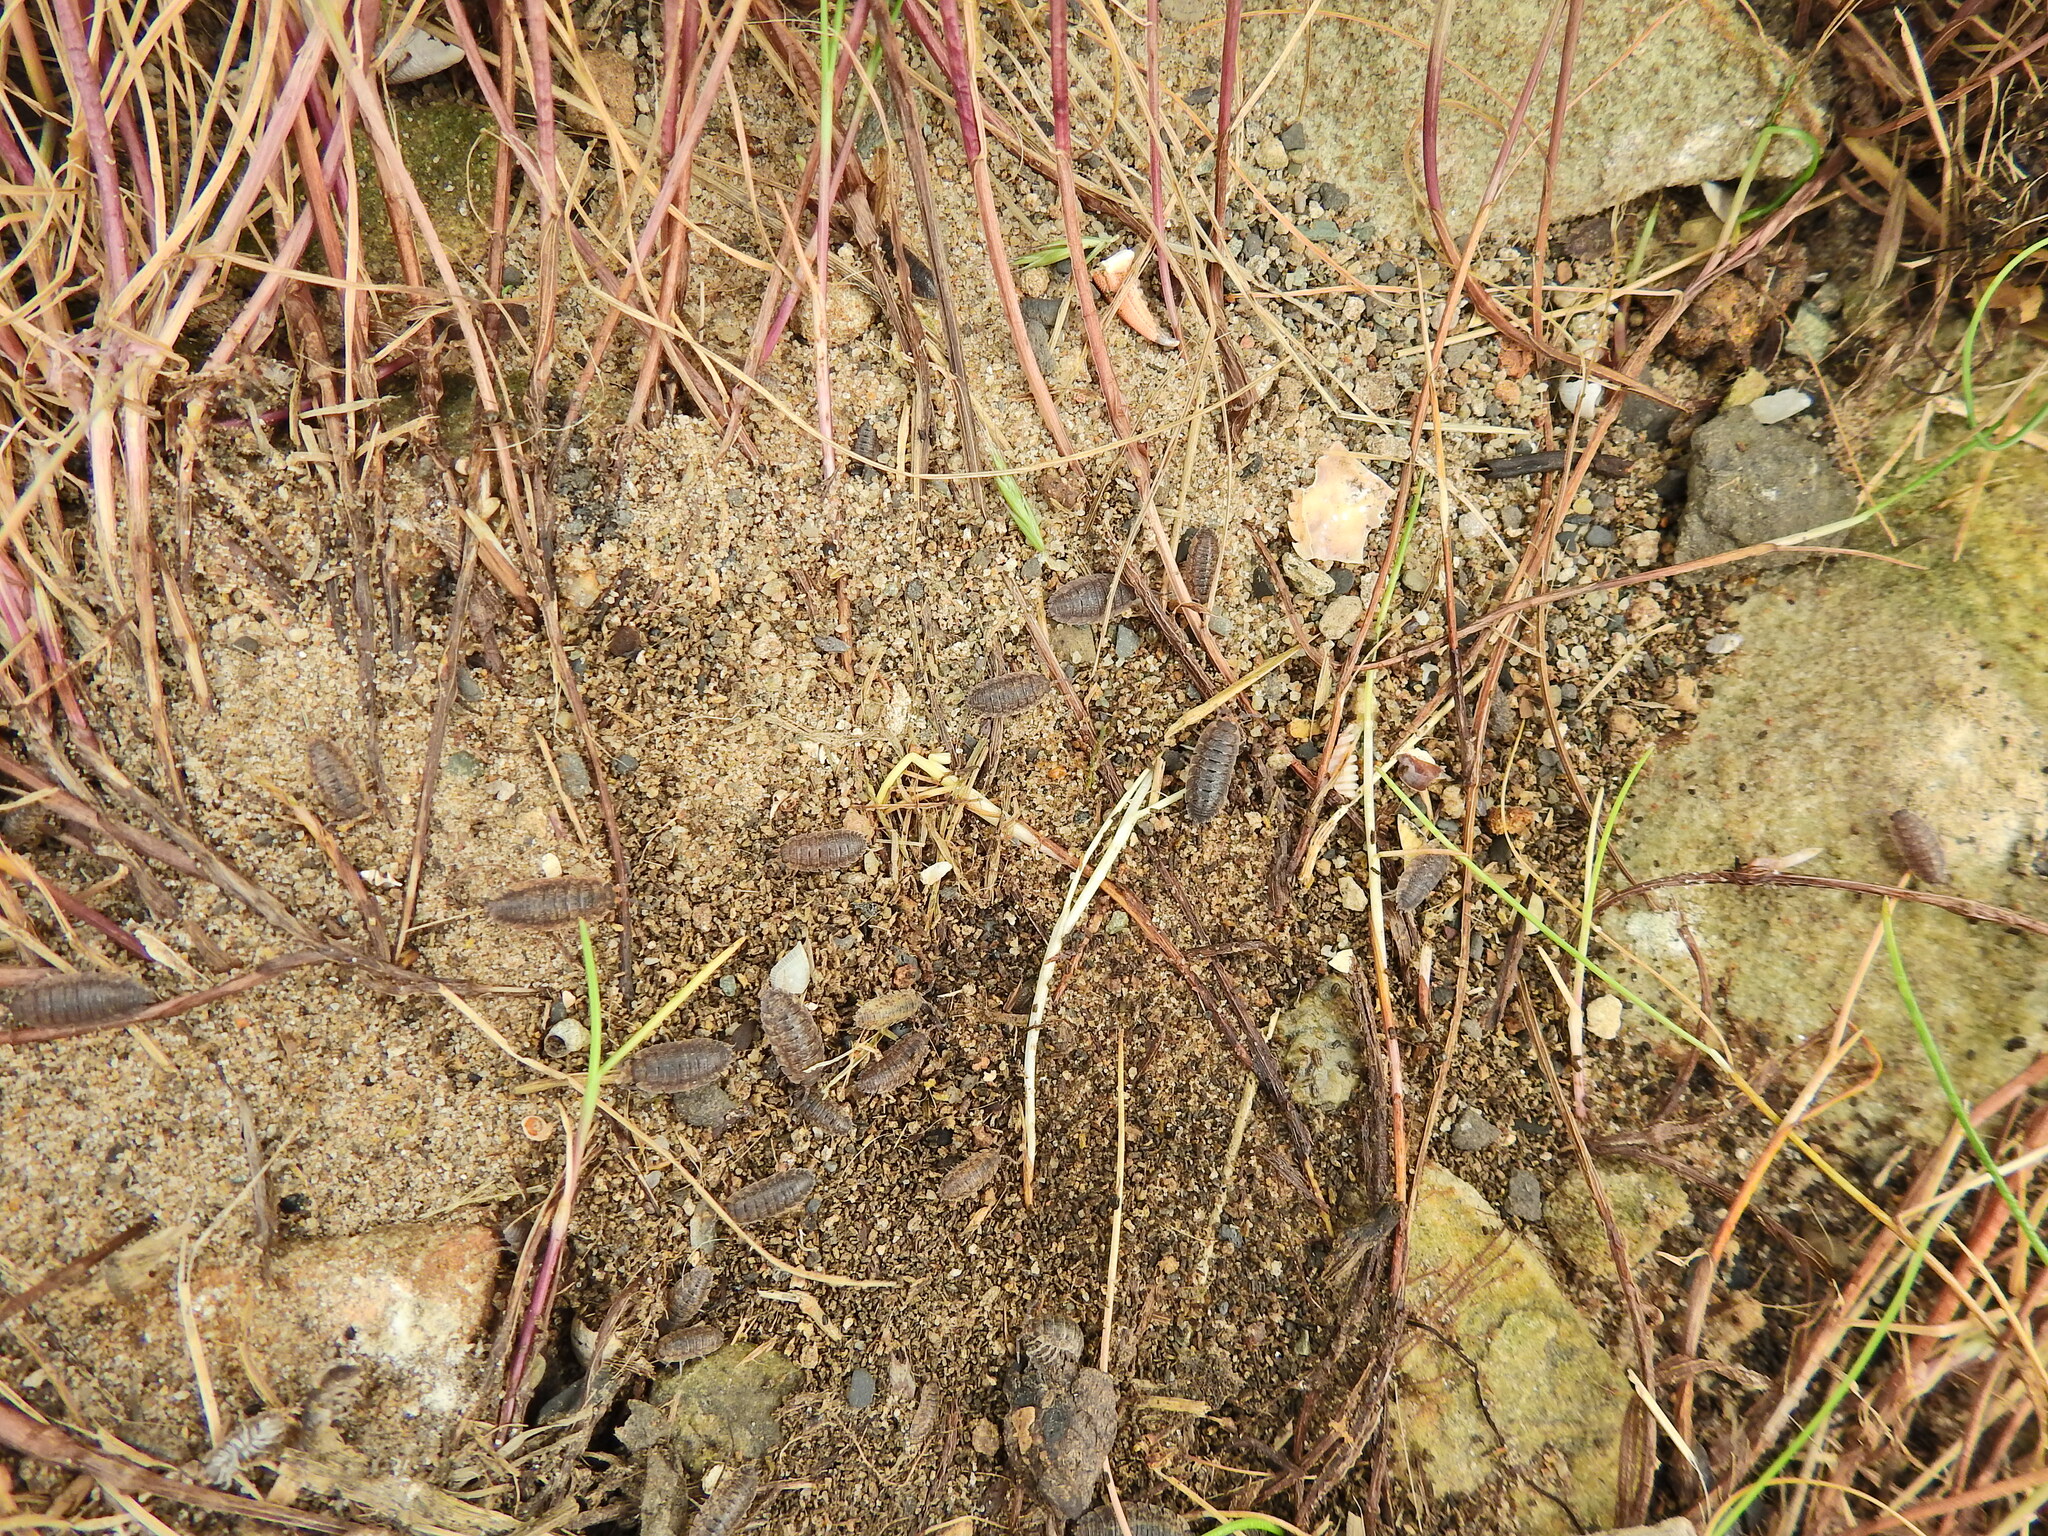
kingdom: Animalia
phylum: Arthropoda
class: Malacostraca
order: Isopoda
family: Porcellionidae
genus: Porcellio
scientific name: Porcellio scaber
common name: Common rough woodlouse
